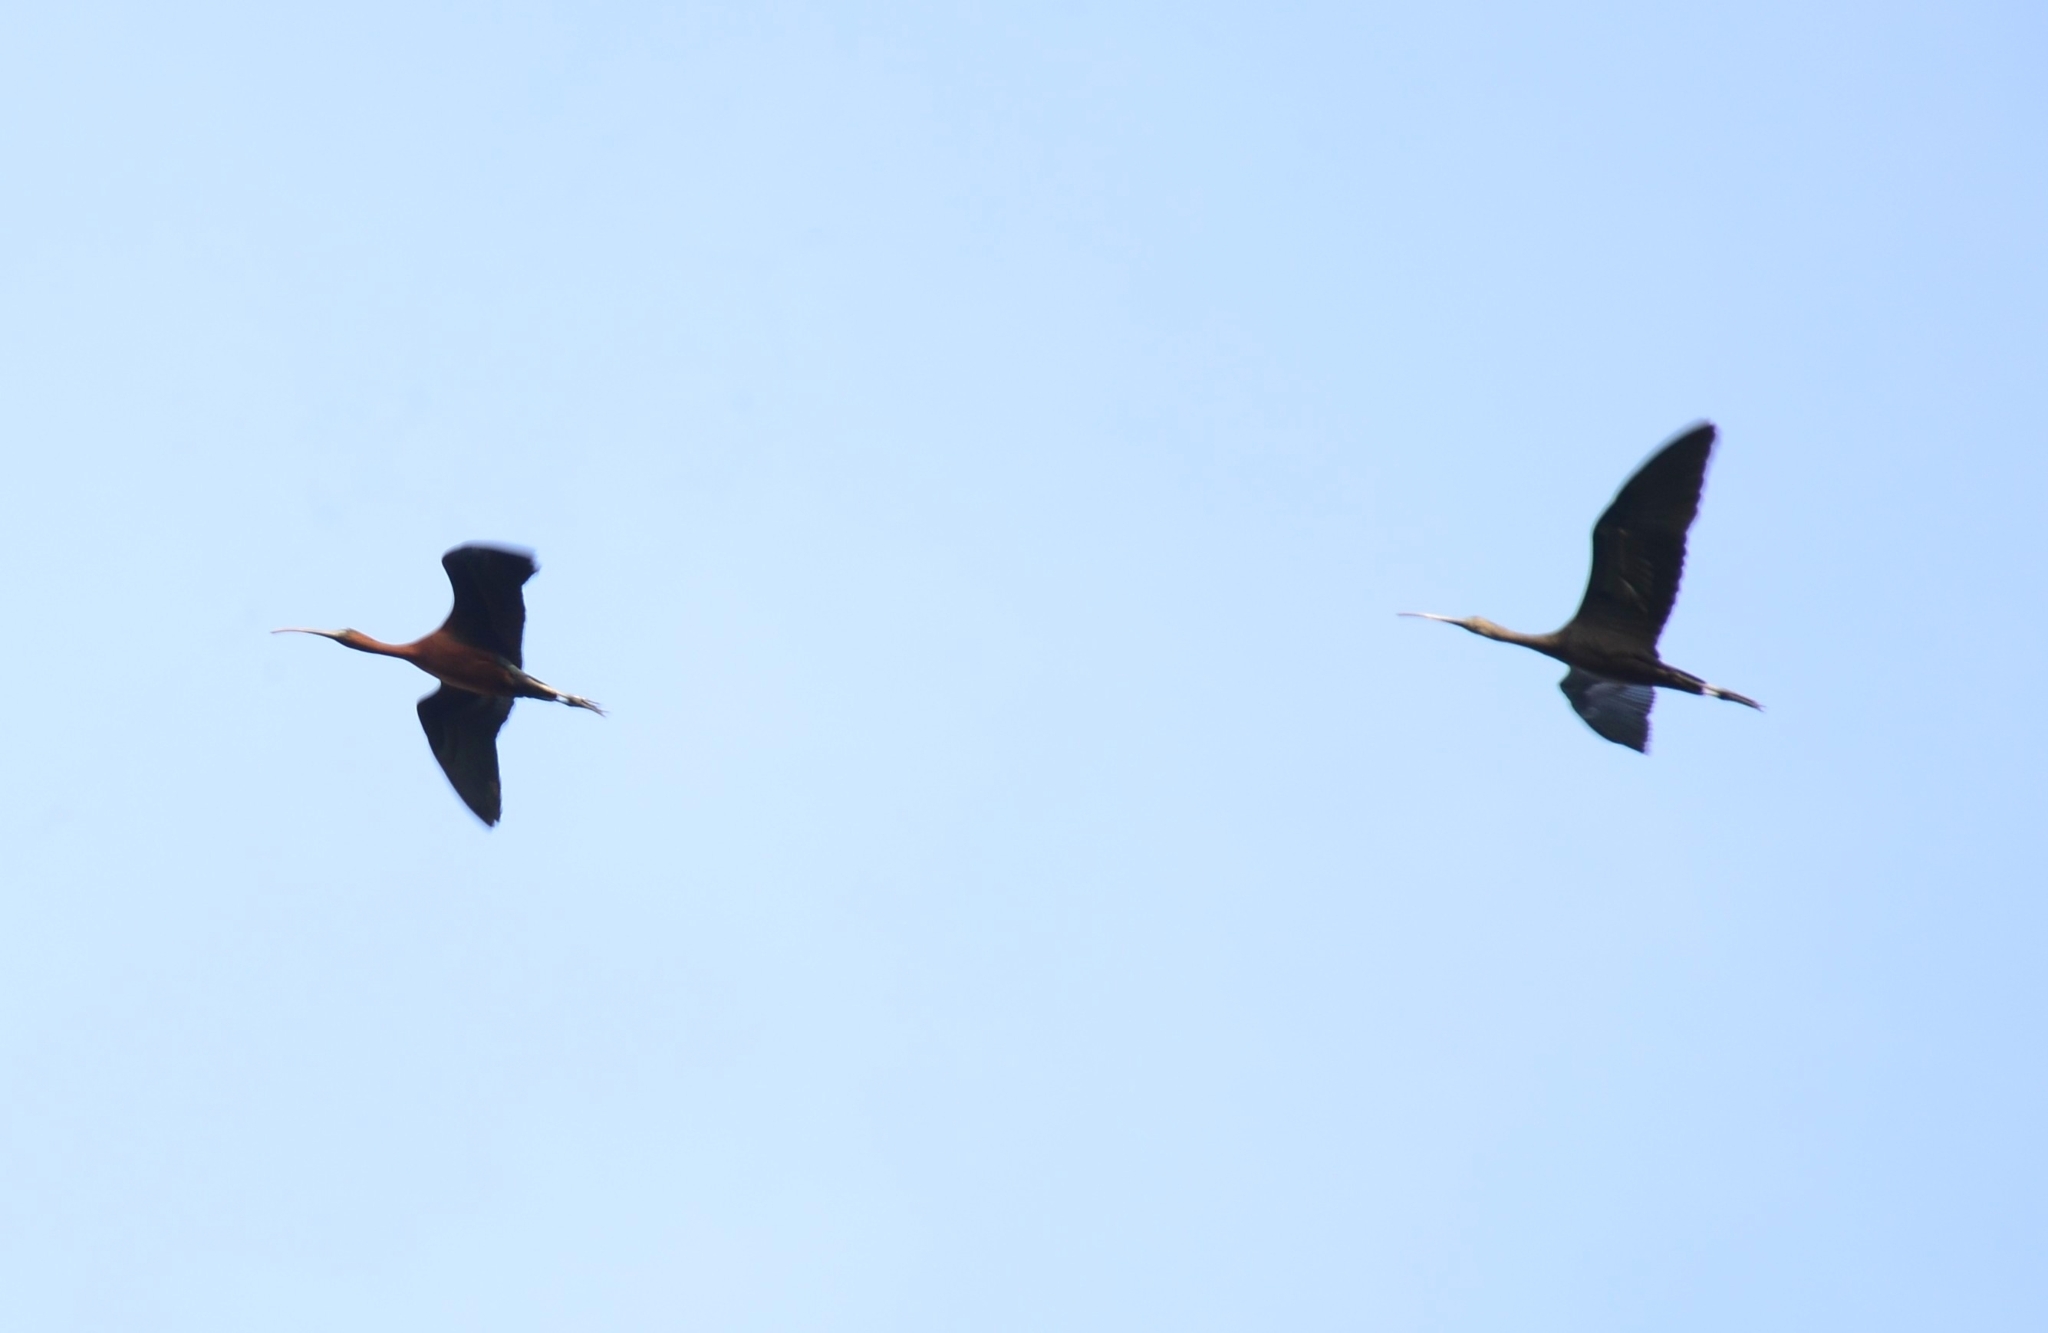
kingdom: Animalia
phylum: Chordata
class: Aves
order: Pelecaniformes
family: Threskiornithidae
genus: Plegadis
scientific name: Plegadis falcinellus
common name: Glossy ibis
